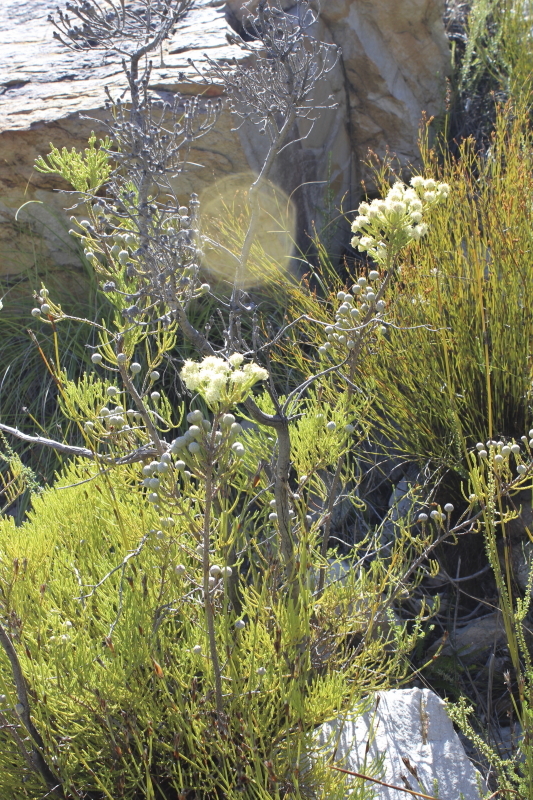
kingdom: Plantae
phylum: Tracheophyta
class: Magnoliopsida
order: Bruniales
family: Bruniaceae
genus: Brunia
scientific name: Brunia noduliflora
